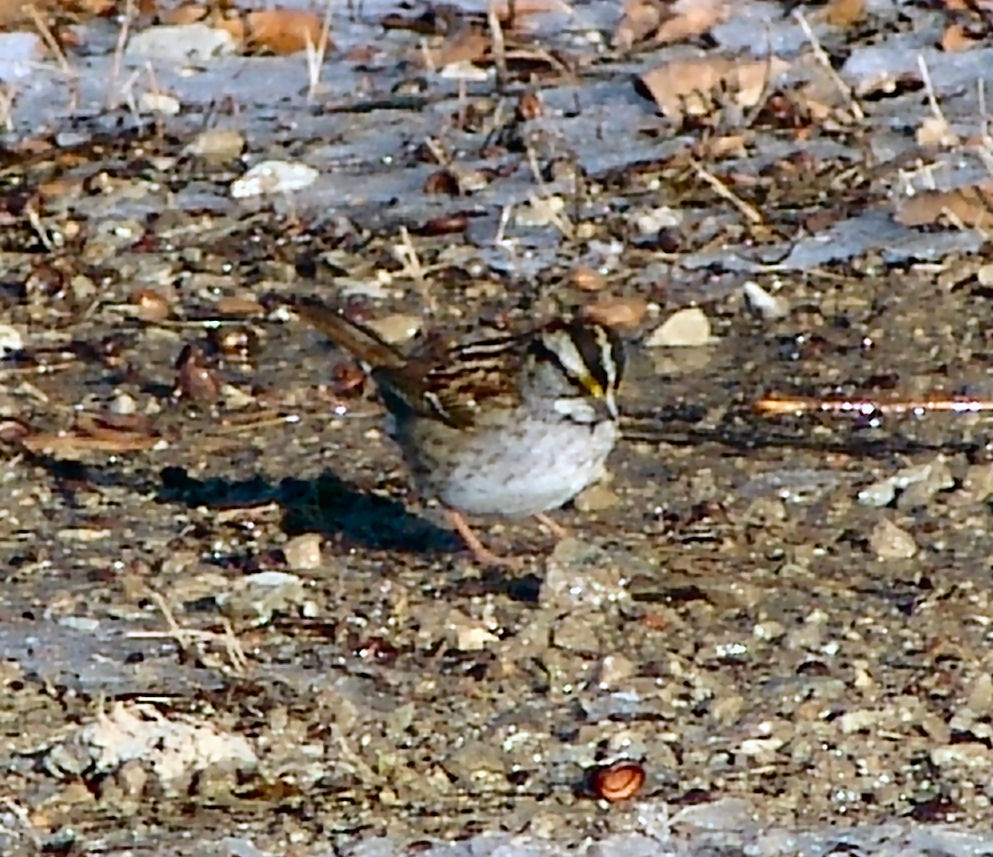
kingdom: Animalia
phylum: Chordata
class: Aves
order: Passeriformes
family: Passerellidae
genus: Zonotrichia
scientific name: Zonotrichia albicollis
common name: White-throated sparrow
